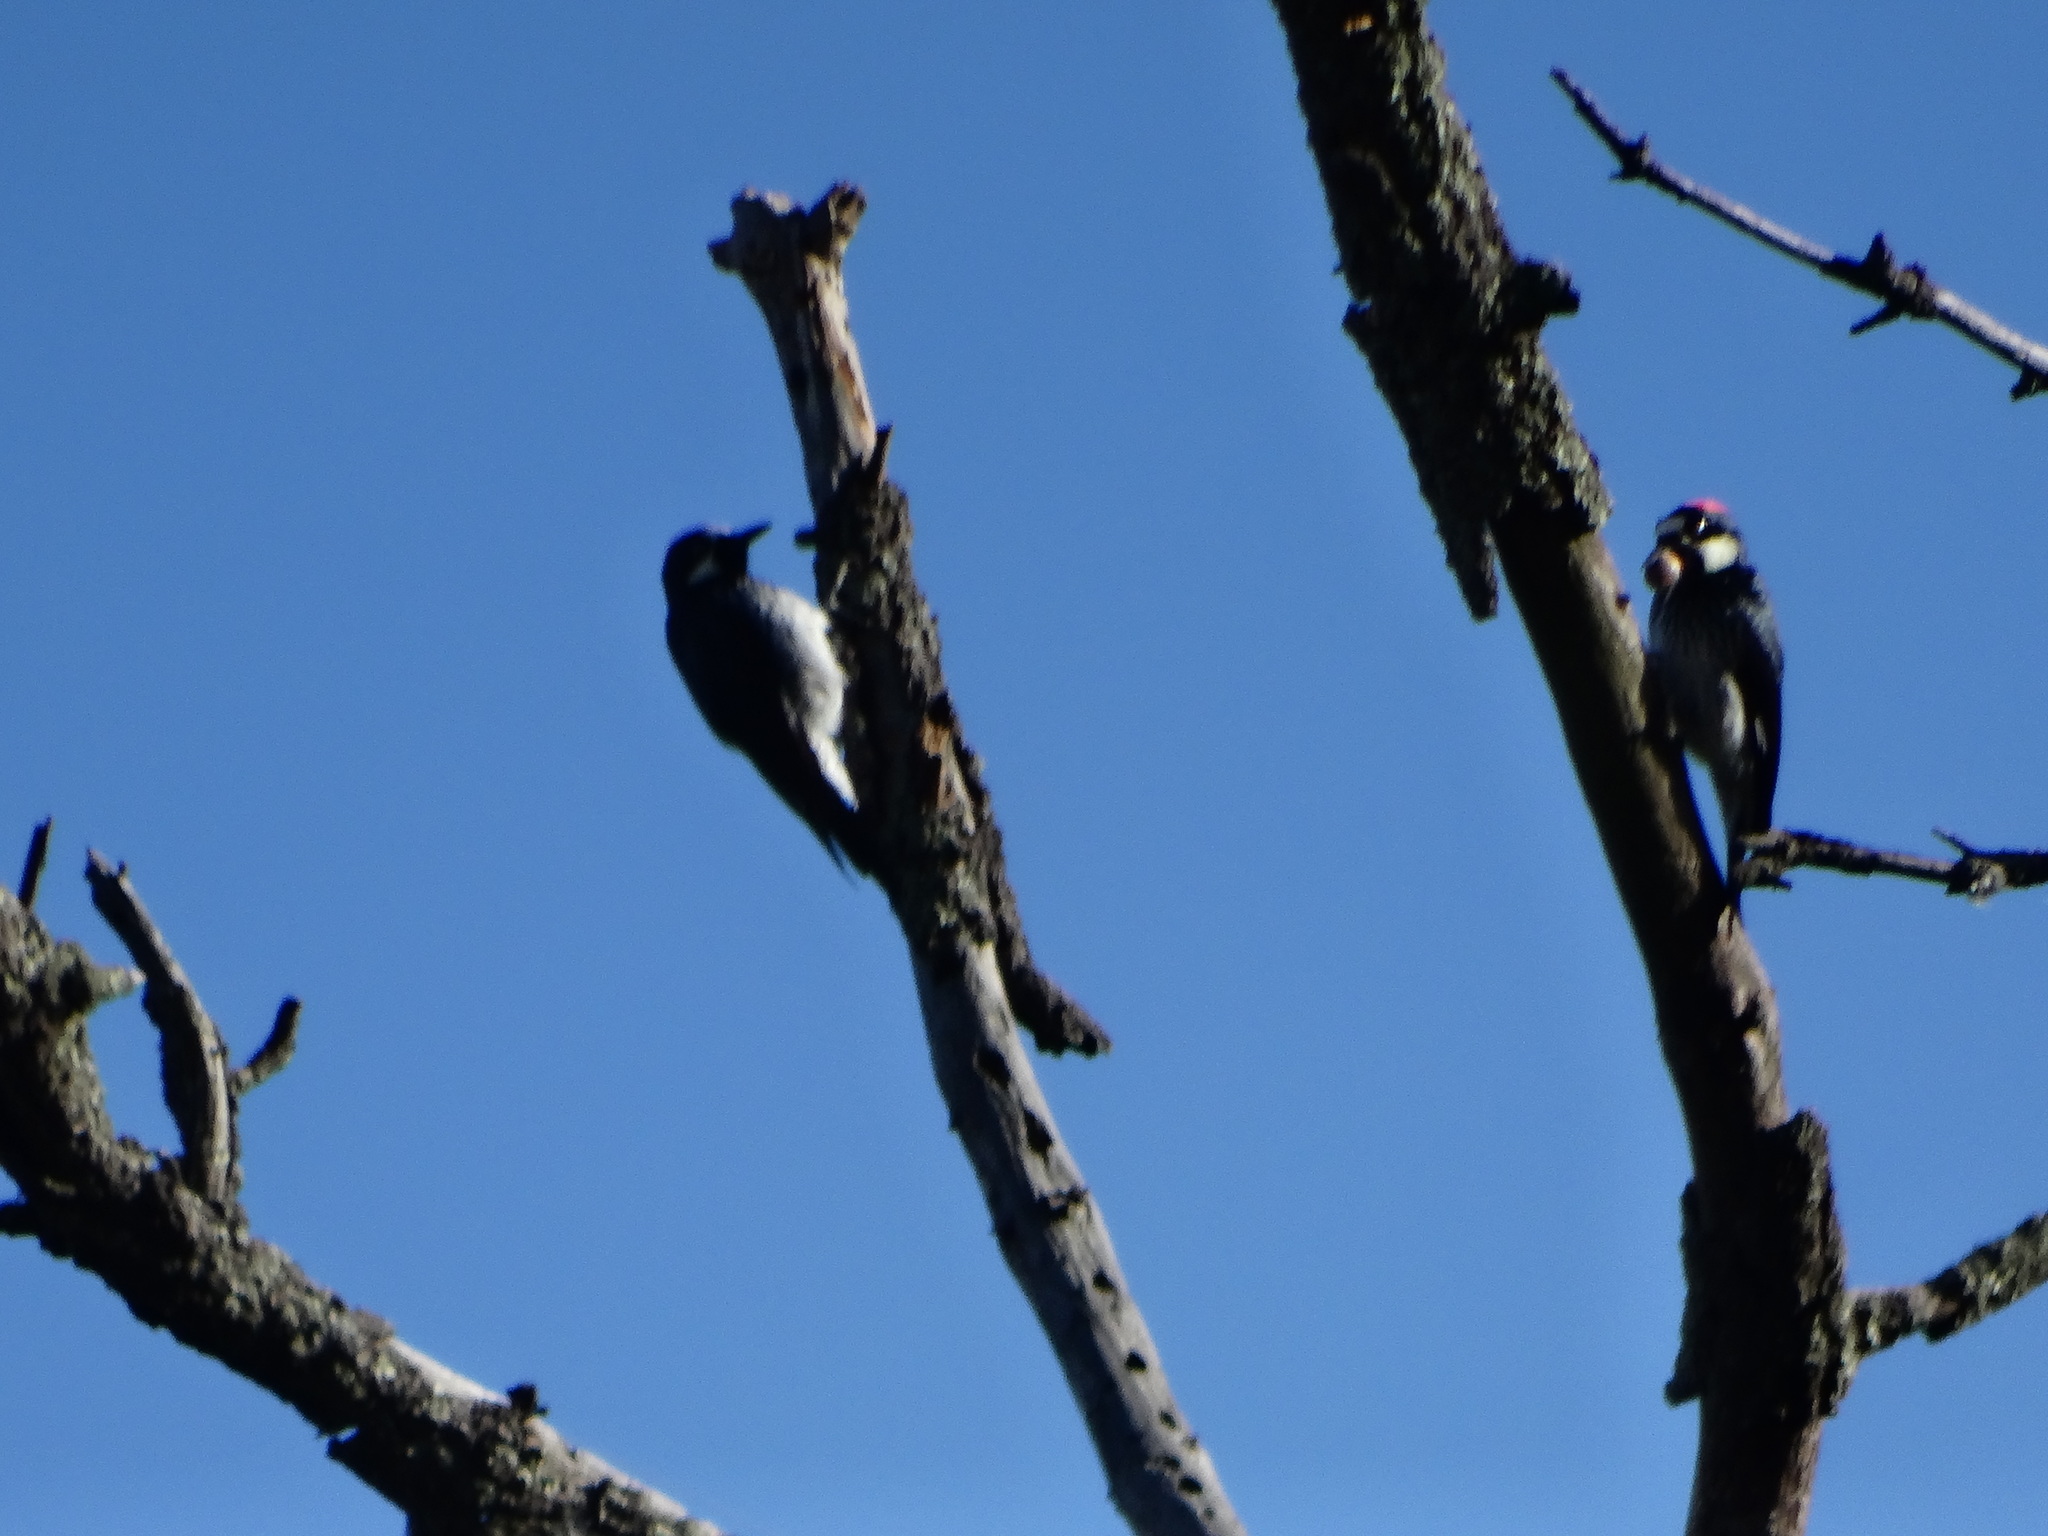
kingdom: Animalia
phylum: Chordata
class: Aves
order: Piciformes
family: Picidae
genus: Melanerpes
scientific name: Melanerpes formicivorus
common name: Acorn woodpecker
